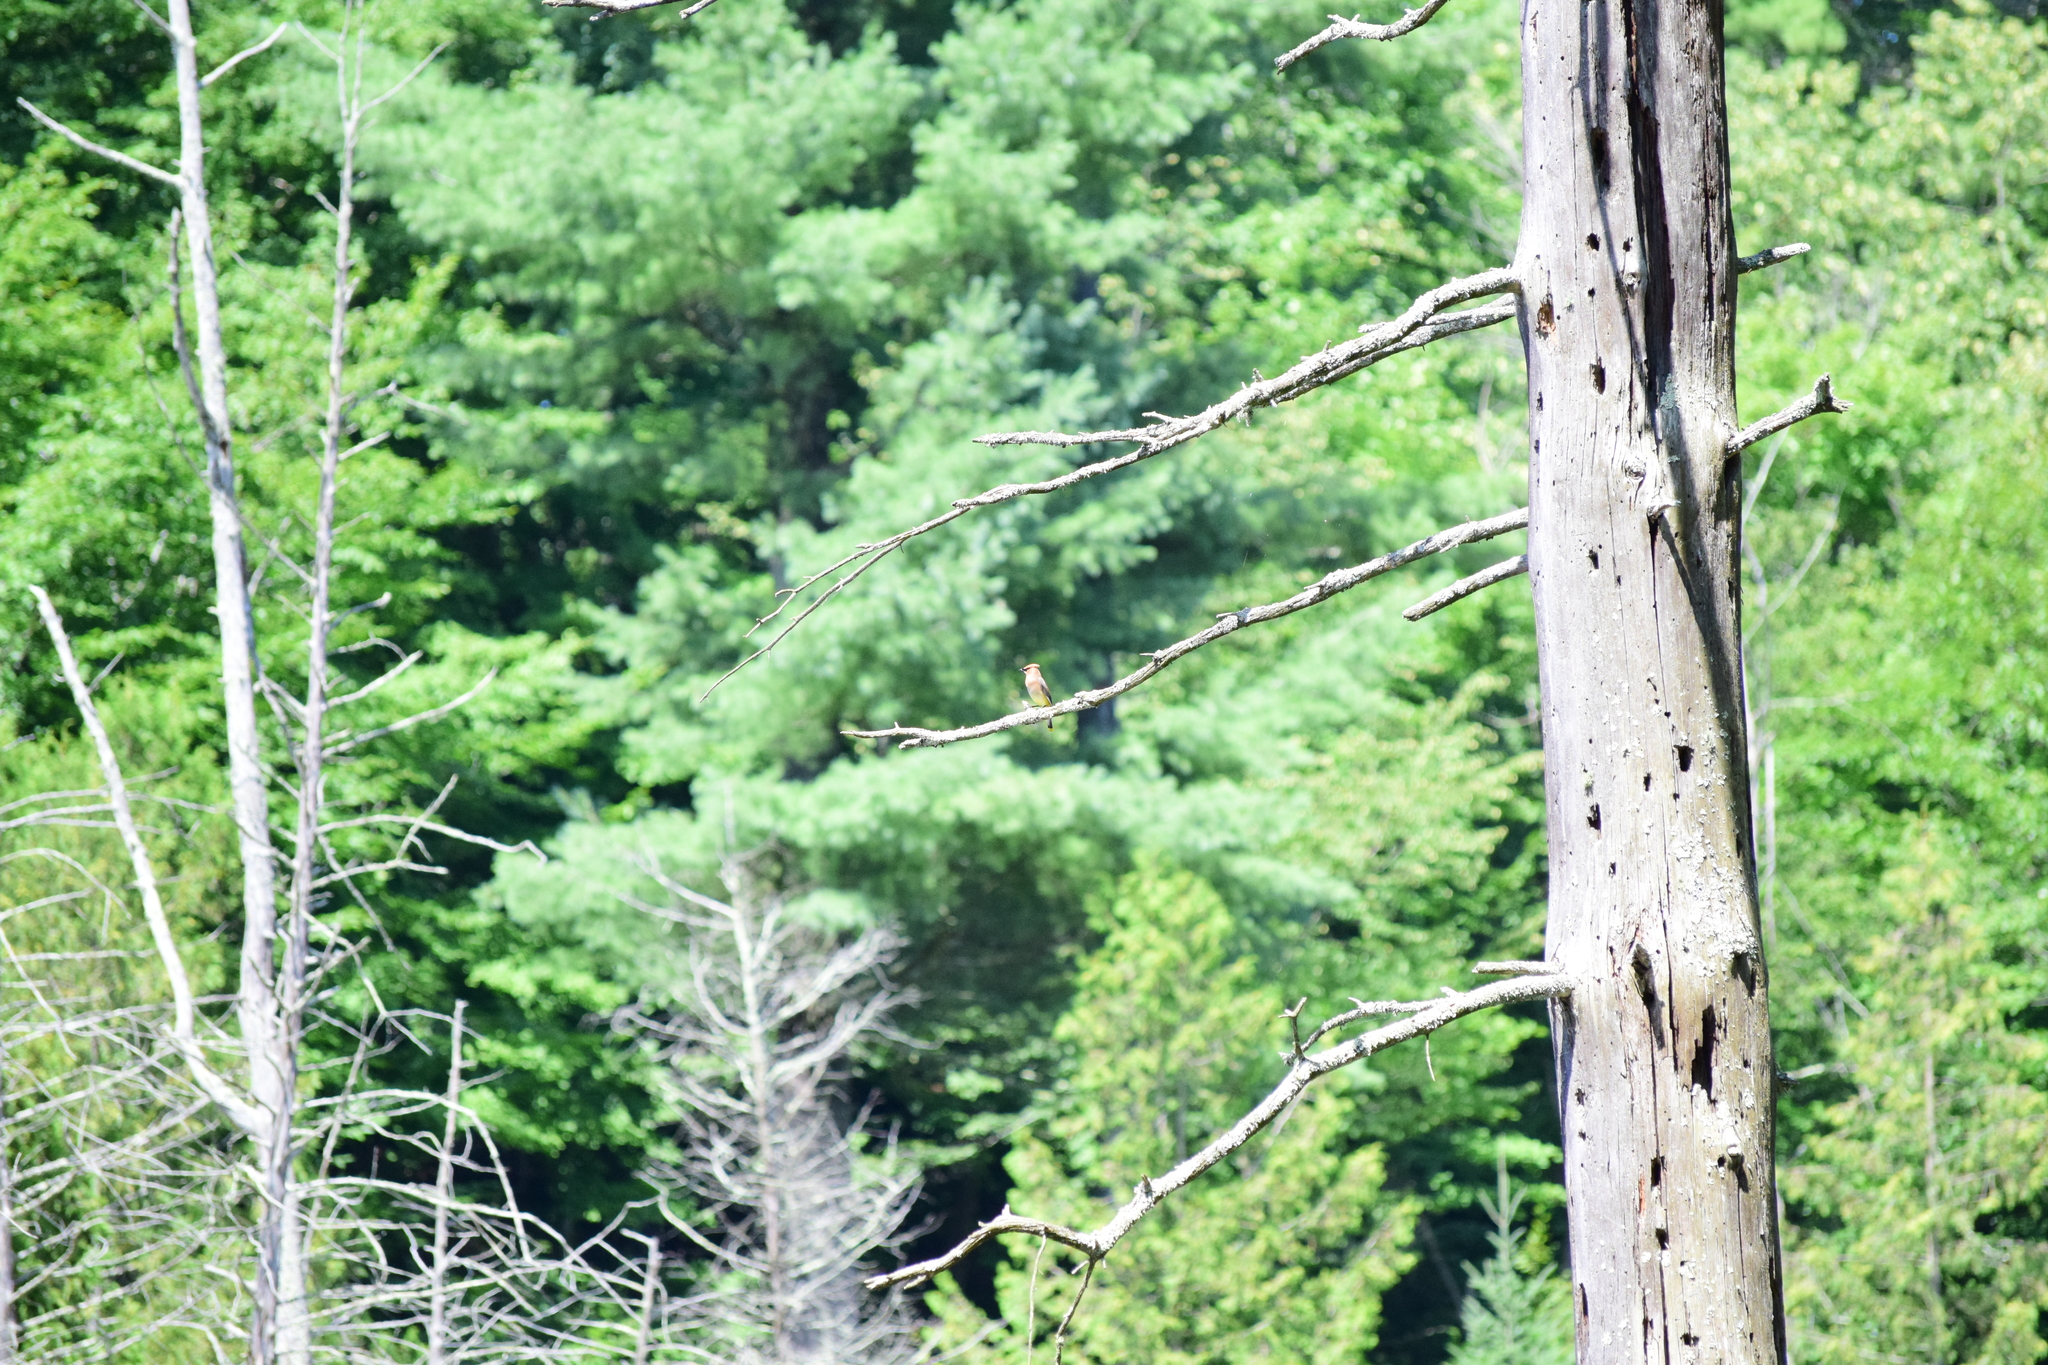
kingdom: Animalia
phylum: Chordata
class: Aves
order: Passeriformes
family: Bombycillidae
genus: Bombycilla
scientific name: Bombycilla cedrorum
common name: Cedar waxwing
